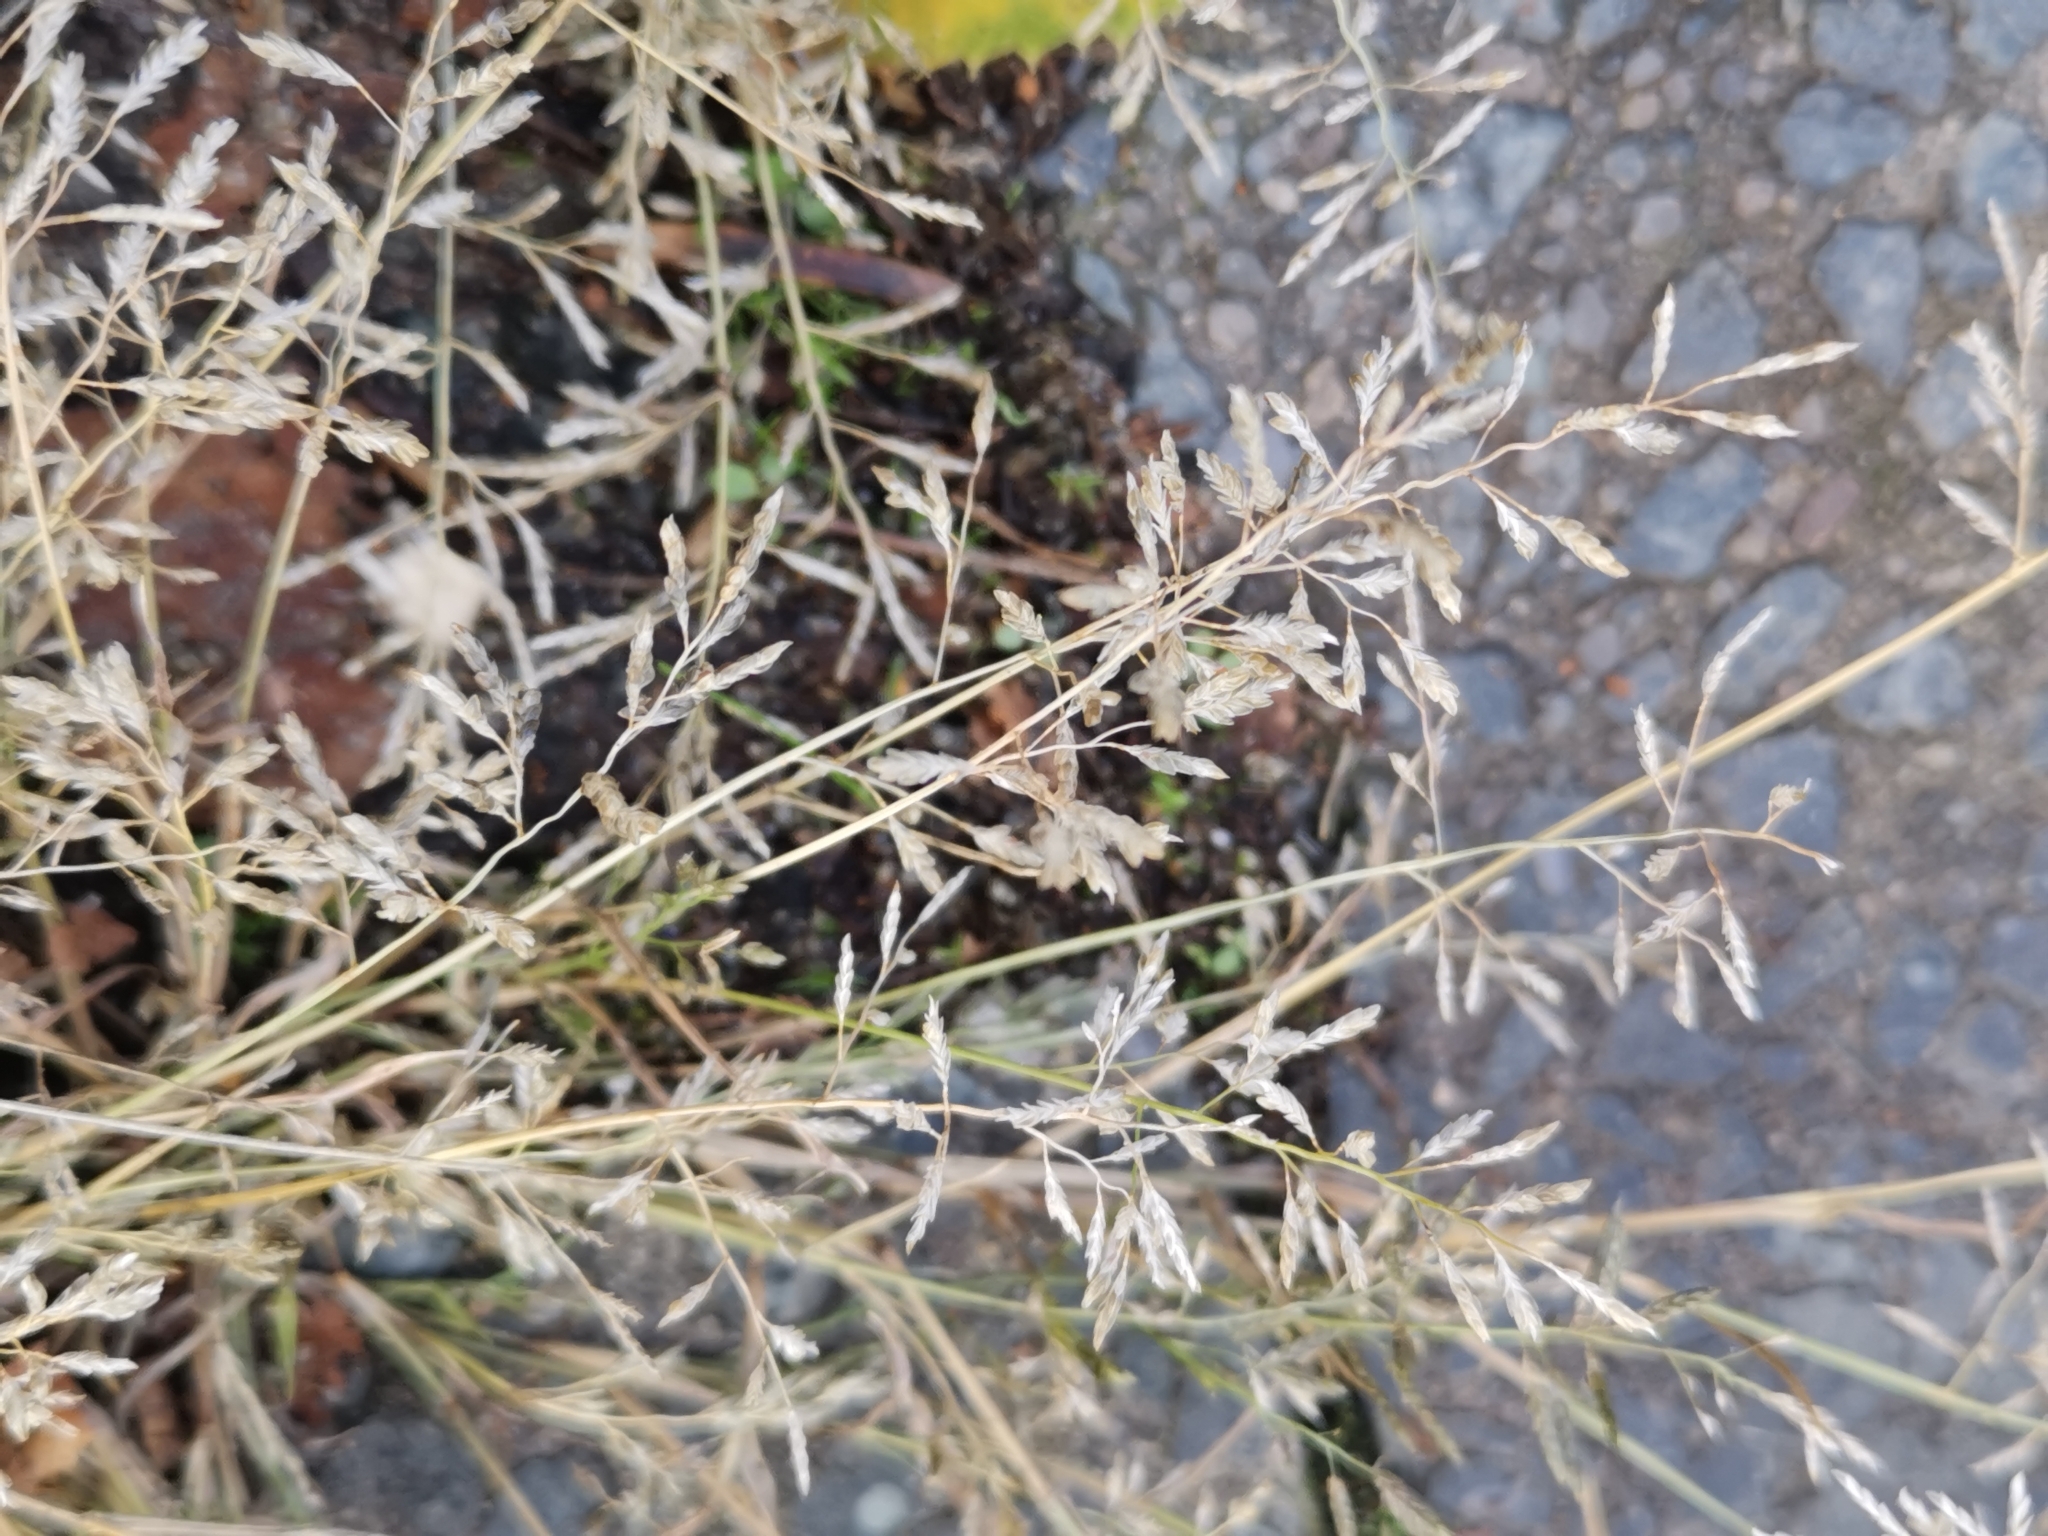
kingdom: Plantae
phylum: Tracheophyta
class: Liliopsida
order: Poales
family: Poaceae
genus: Eragrostis
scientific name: Eragrostis minor
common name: Small love-grass
